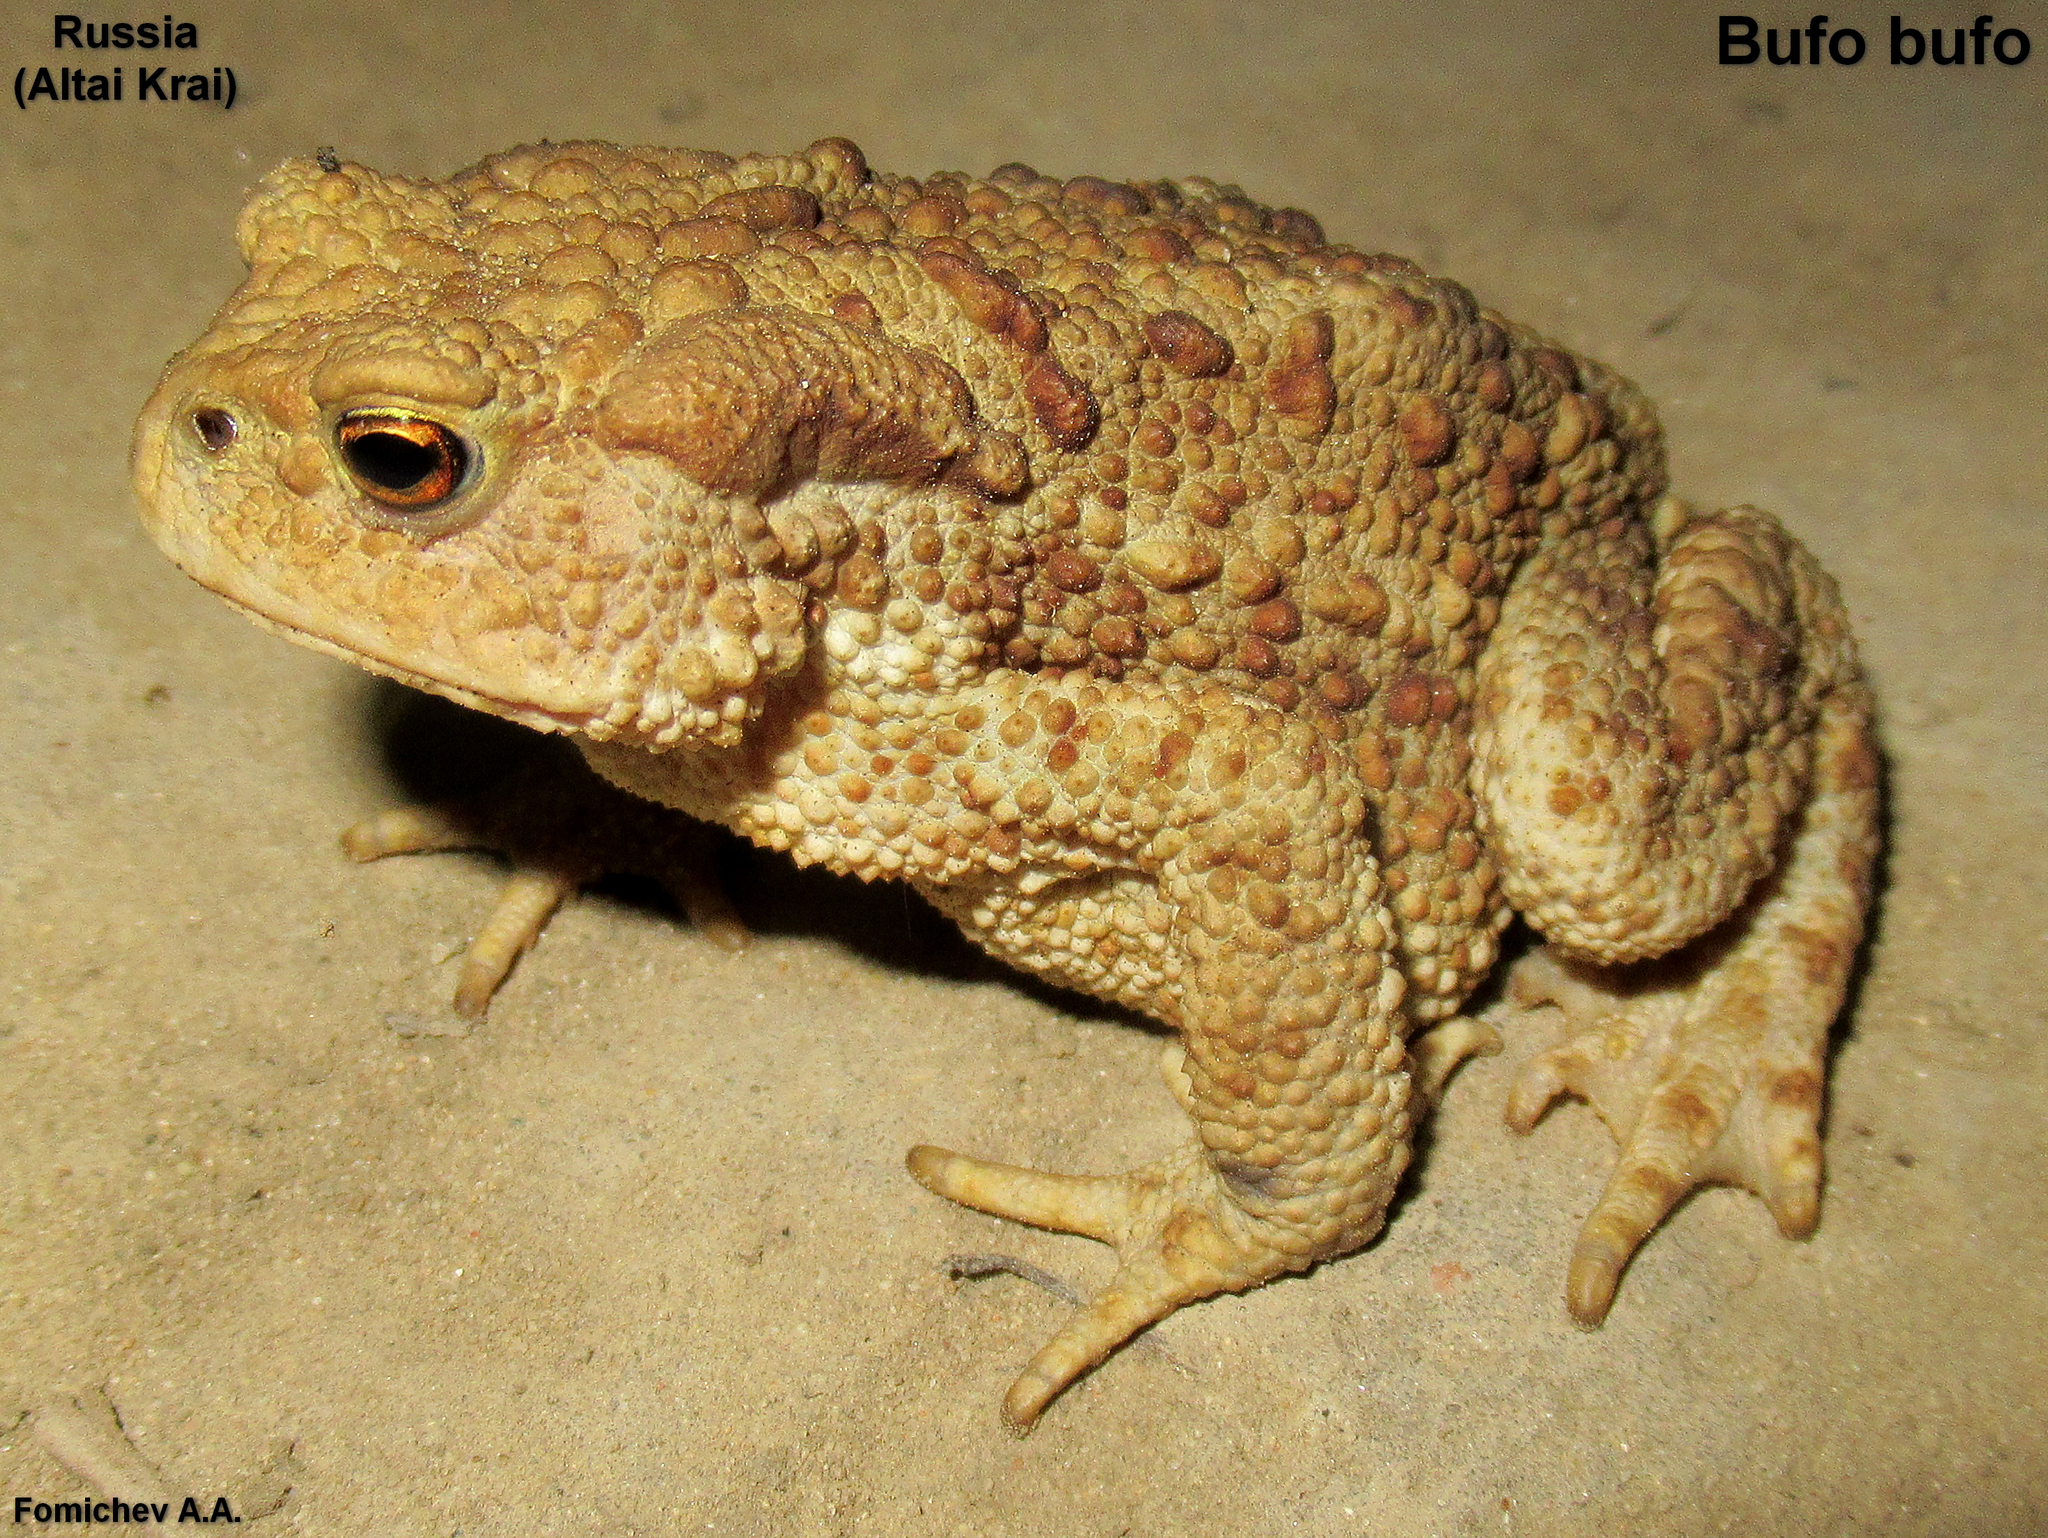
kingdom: Animalia
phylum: Chordata
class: Amphibia
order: Anura
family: Bufonidae
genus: Bufo
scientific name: Bufo bufo
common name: Common toad
